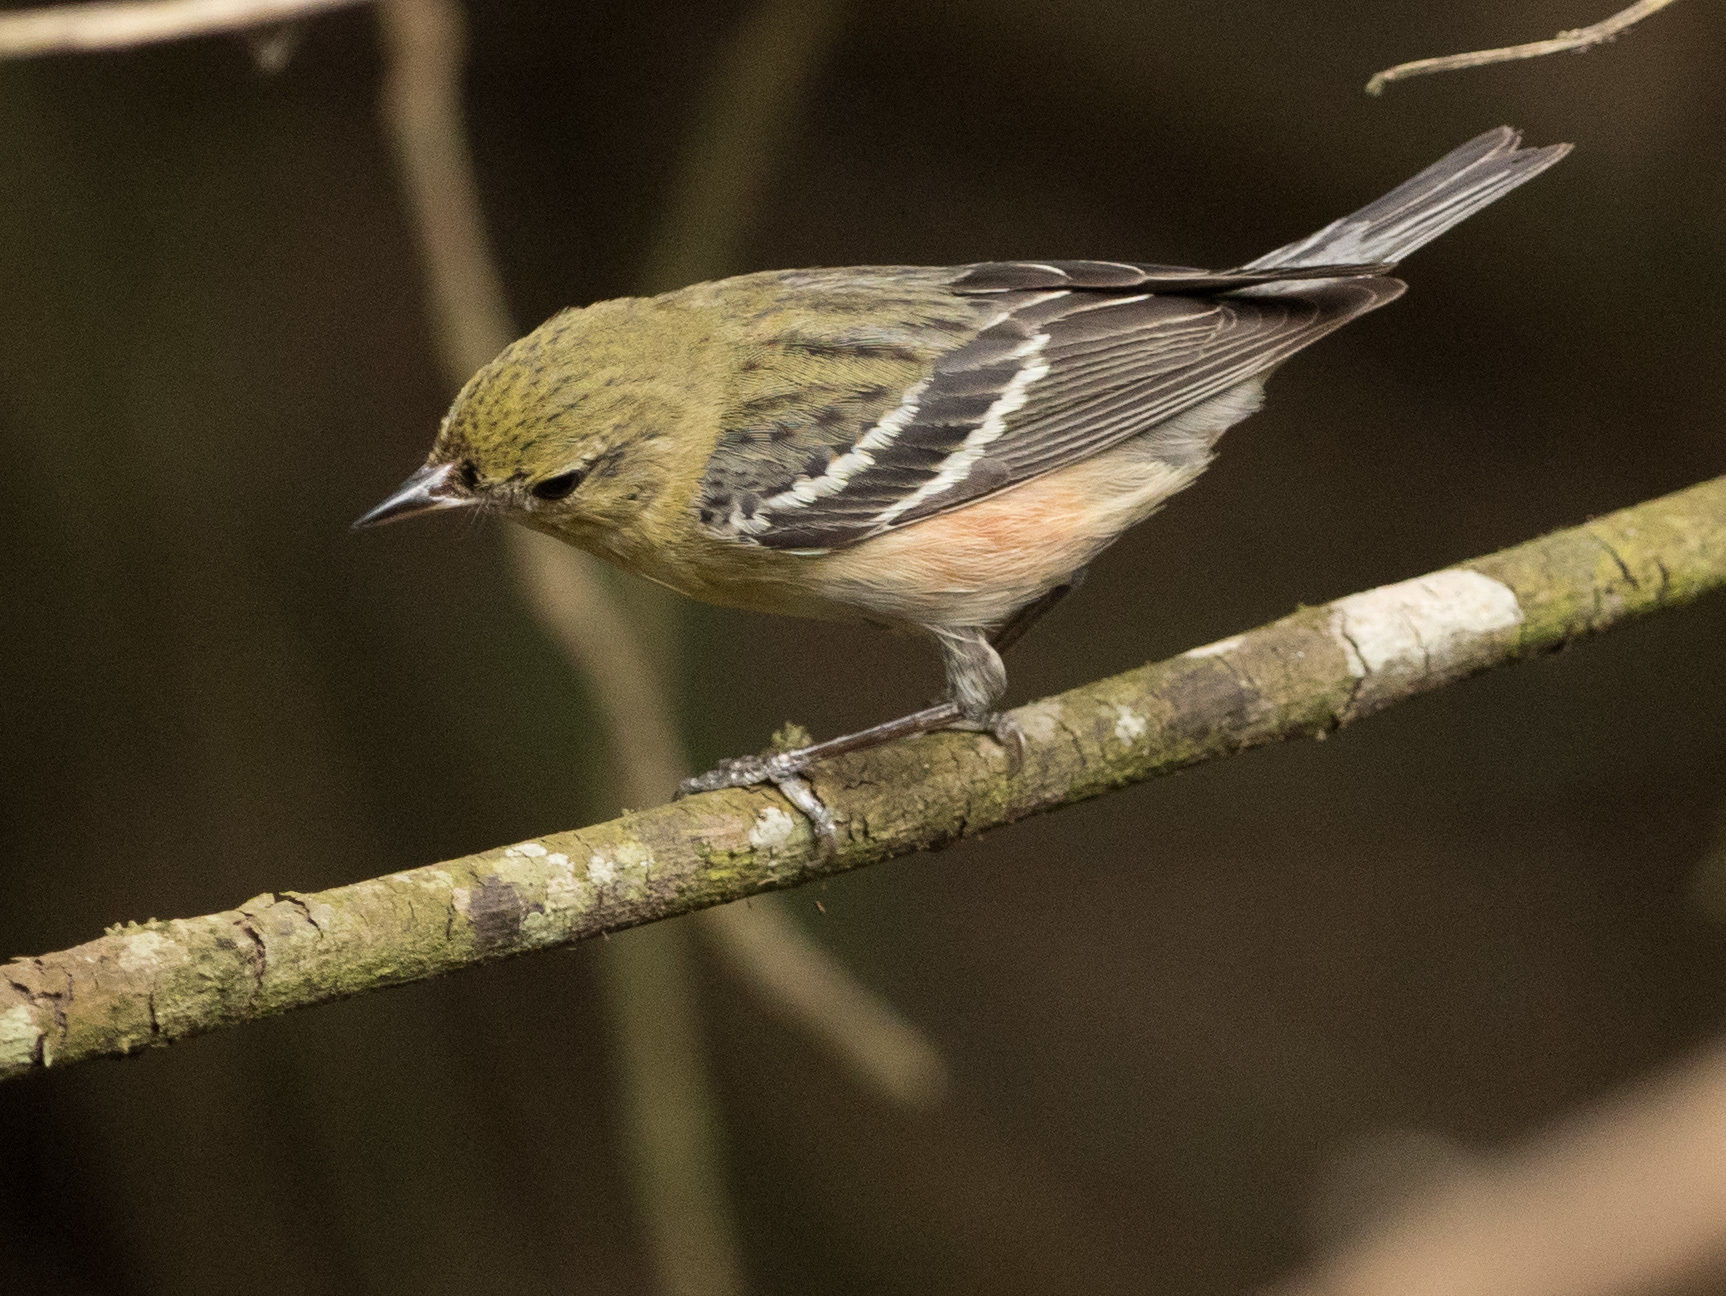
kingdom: Animalia
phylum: Chordata
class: Aves
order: Passeriformes
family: Parulidae
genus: Setophaga
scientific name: Setophaga castanea
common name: Bay-breasted warbler
